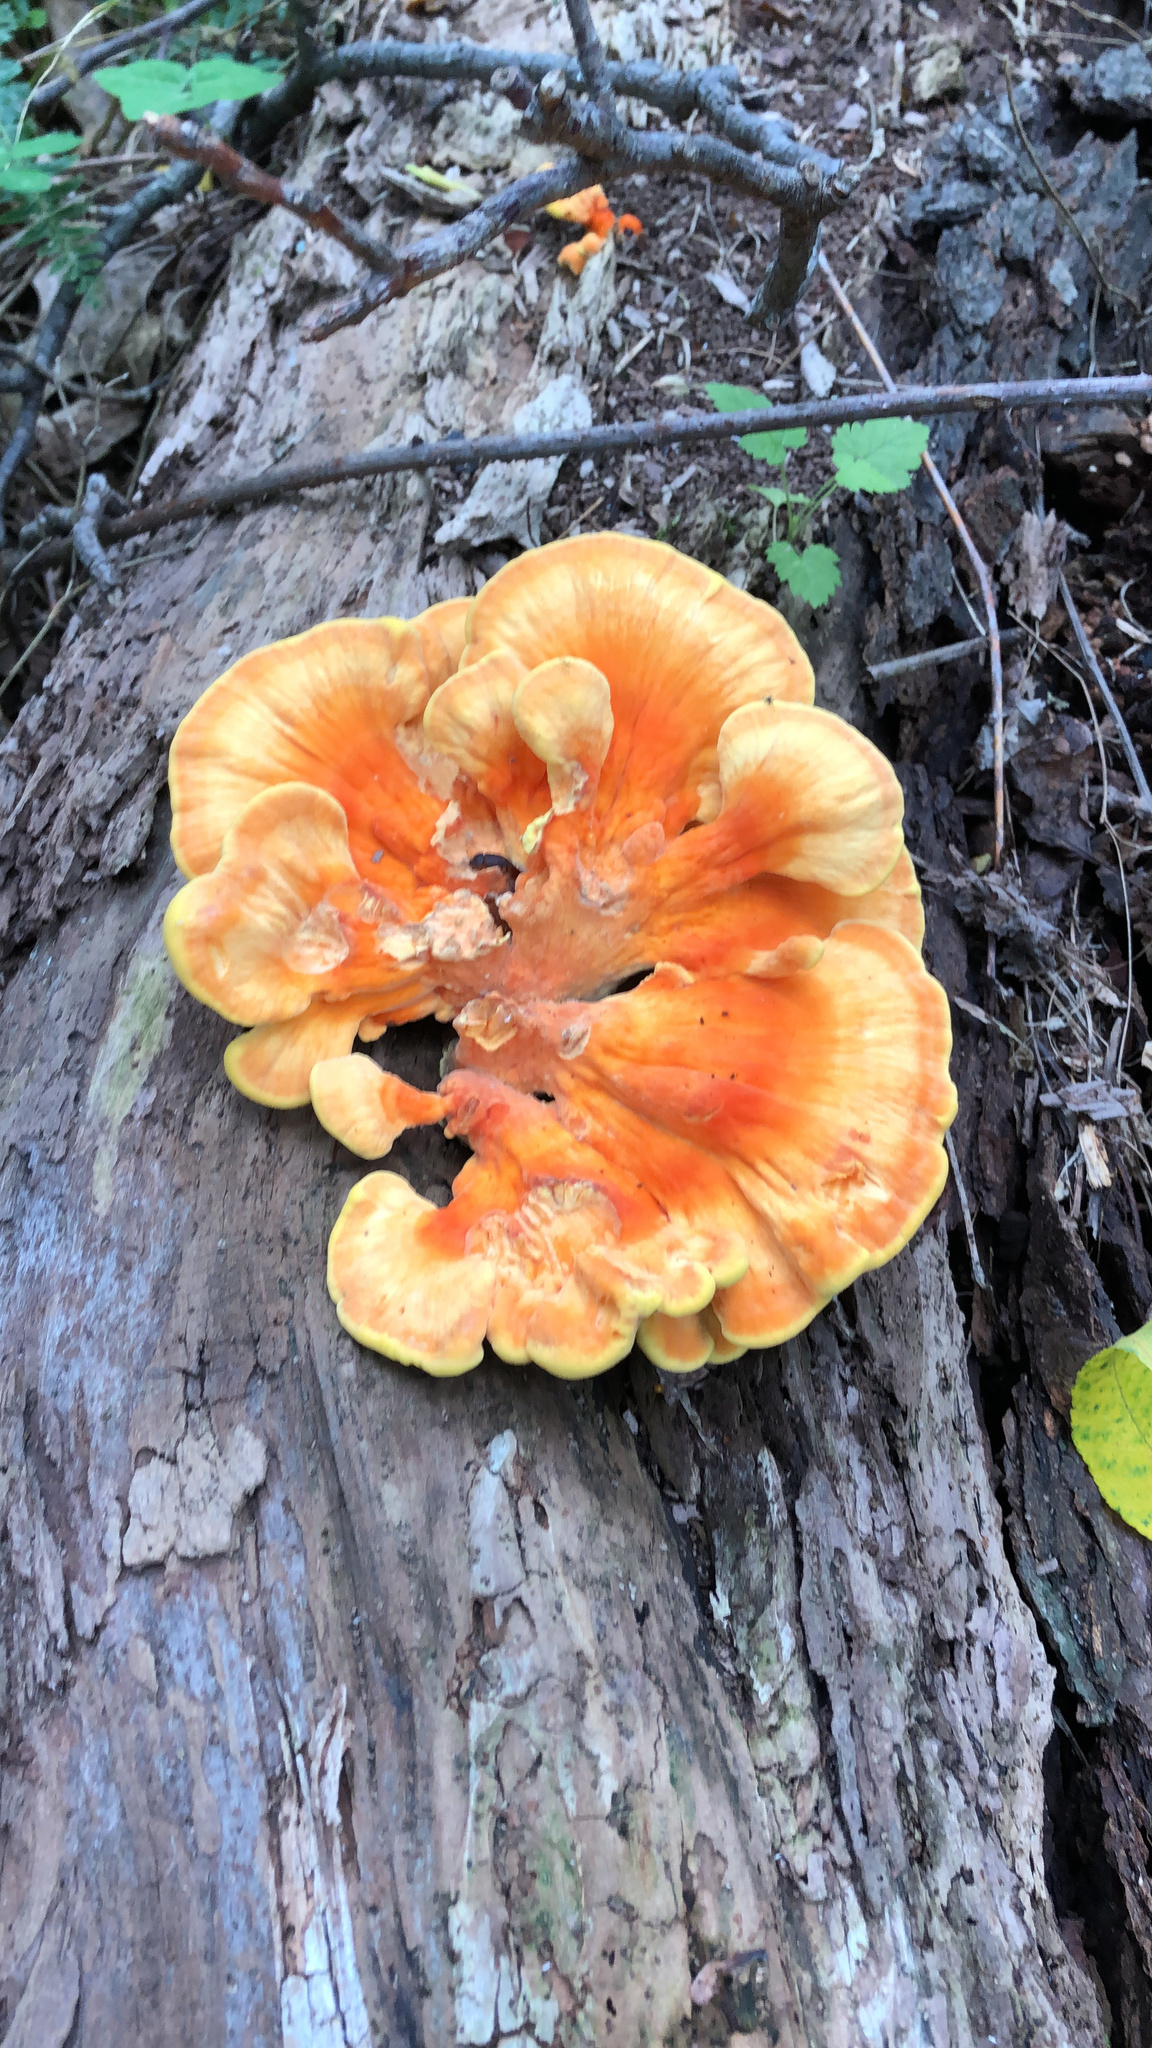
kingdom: Fungi
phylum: Basidiomycota
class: Agaricomycetes
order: Polyporales
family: Laetiporaceae
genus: Laetiporus
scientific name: Laetiporus sulphureus
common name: Chicken of the woods
